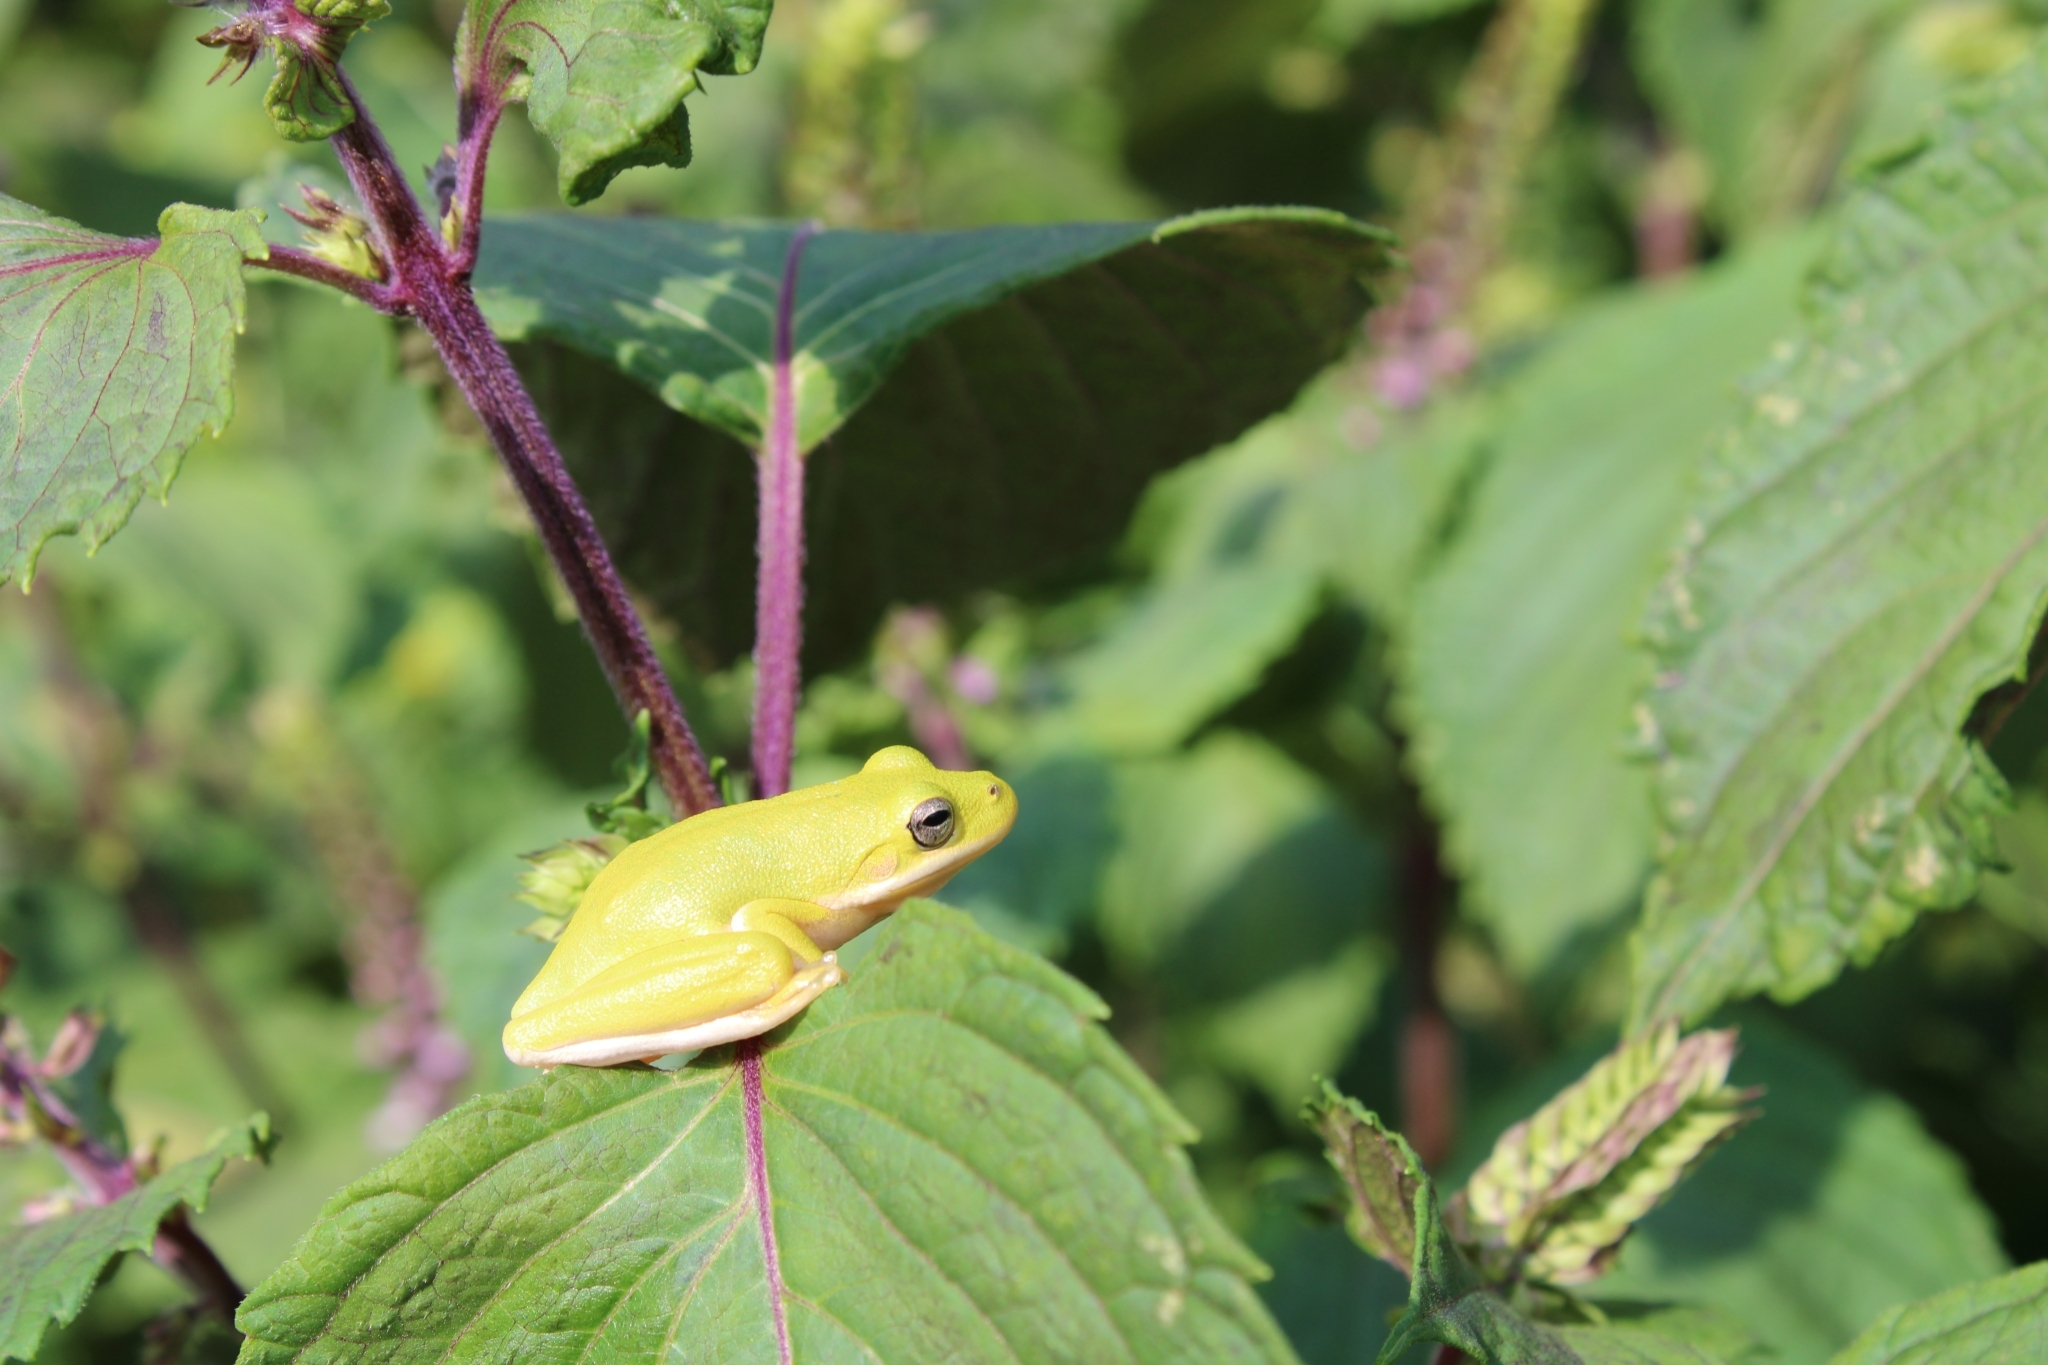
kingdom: Animalia
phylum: Chordata
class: Amphibia
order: Anura
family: Hylidae
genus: Dryophytes
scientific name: Dryophytes cinereus
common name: Green treefrog
